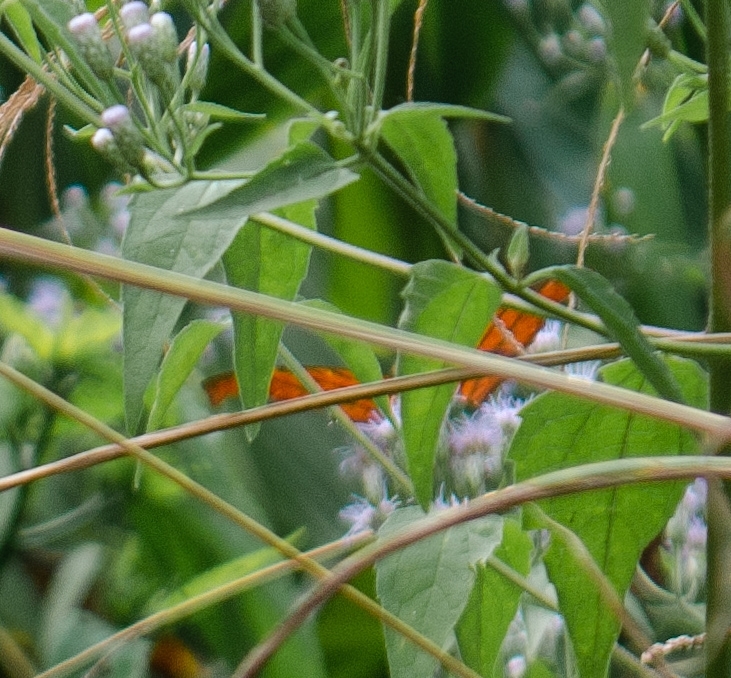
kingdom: Animalia
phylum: Arthropoda
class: Insecta
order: Lepidoptera
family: Nymphalidae
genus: Marpesia
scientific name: Marpesia petreus
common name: Red dagger wing
